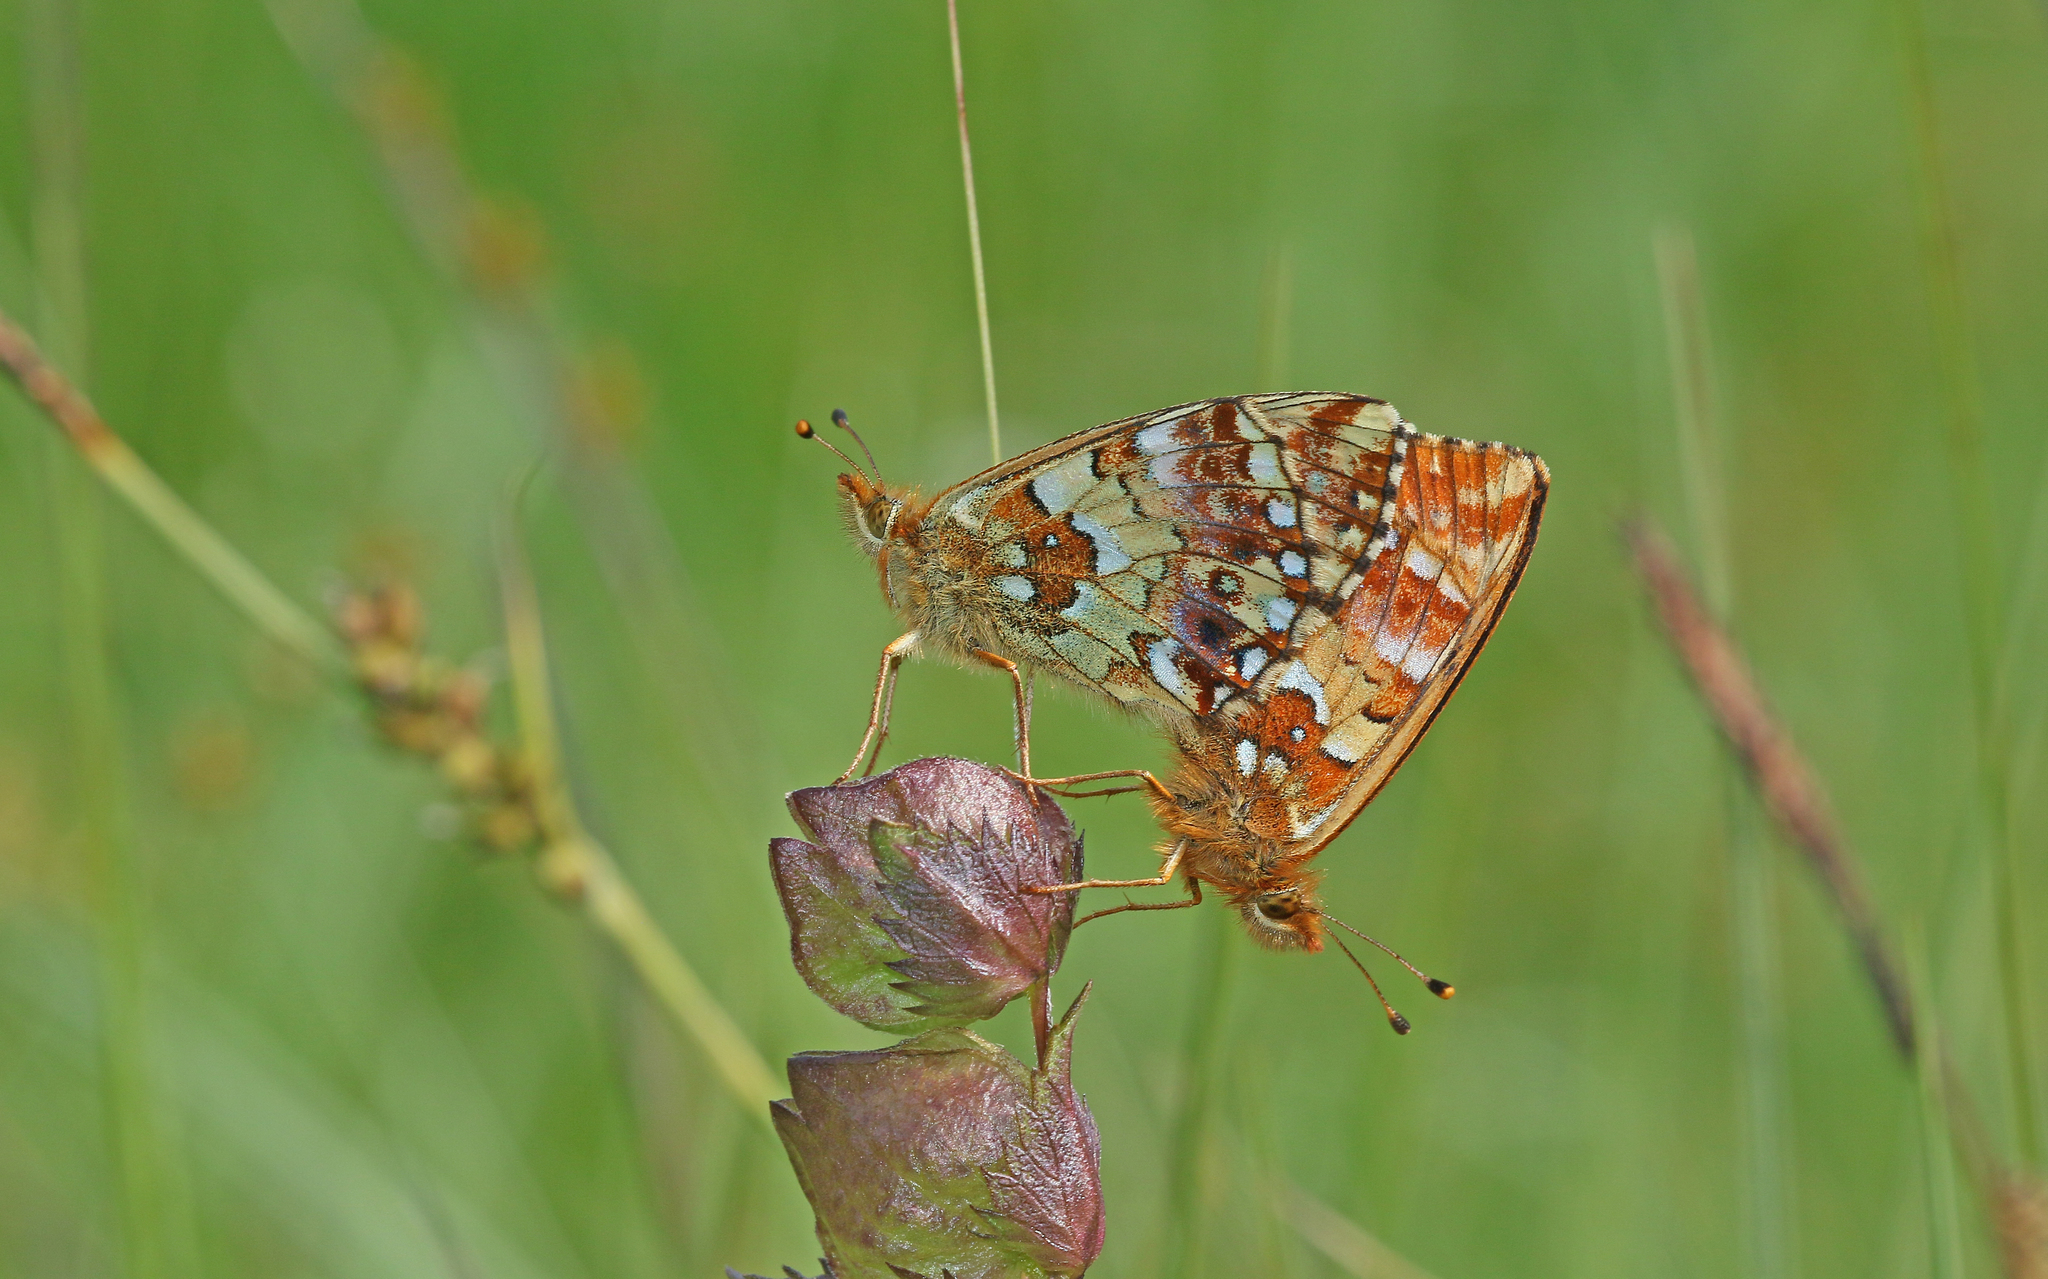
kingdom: Animalia
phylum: Arthropoda
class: Insecta
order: Lepidoptera
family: Nymphalidae
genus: Boloria
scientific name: Boloria aquilonaris
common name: Cranberry fritillary
